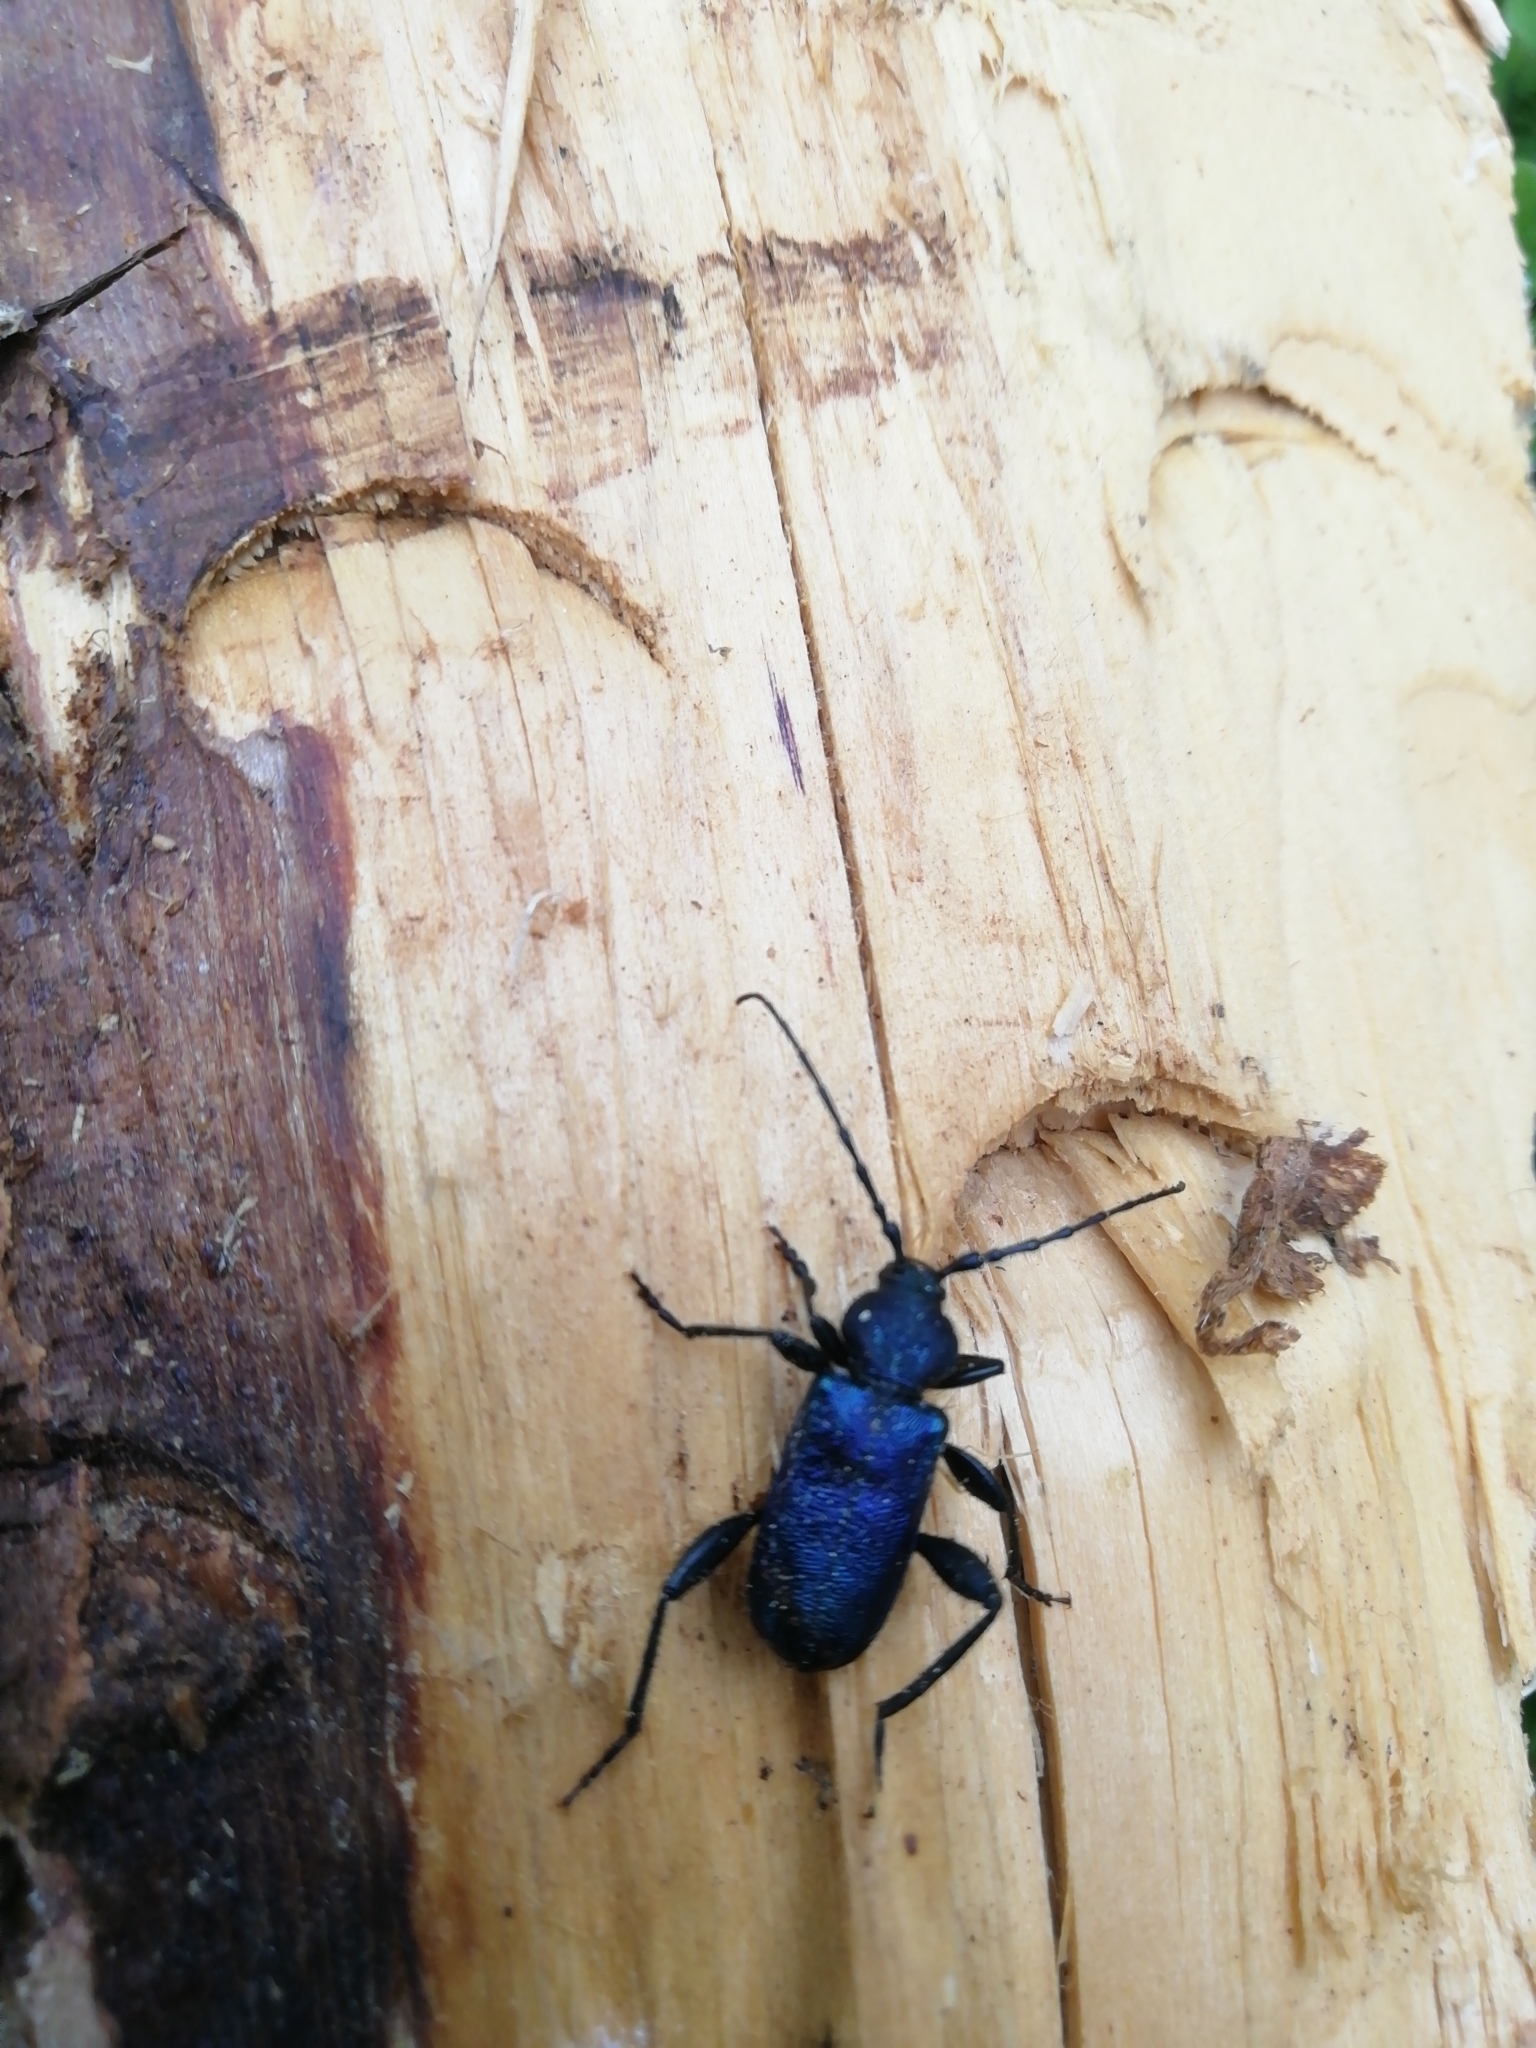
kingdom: Animalia
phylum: Arthropoda
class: Insecta
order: Coleoptera
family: Cerambycidae
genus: Callidium
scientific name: Callidium violaceum
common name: Violet tanbark beetle
